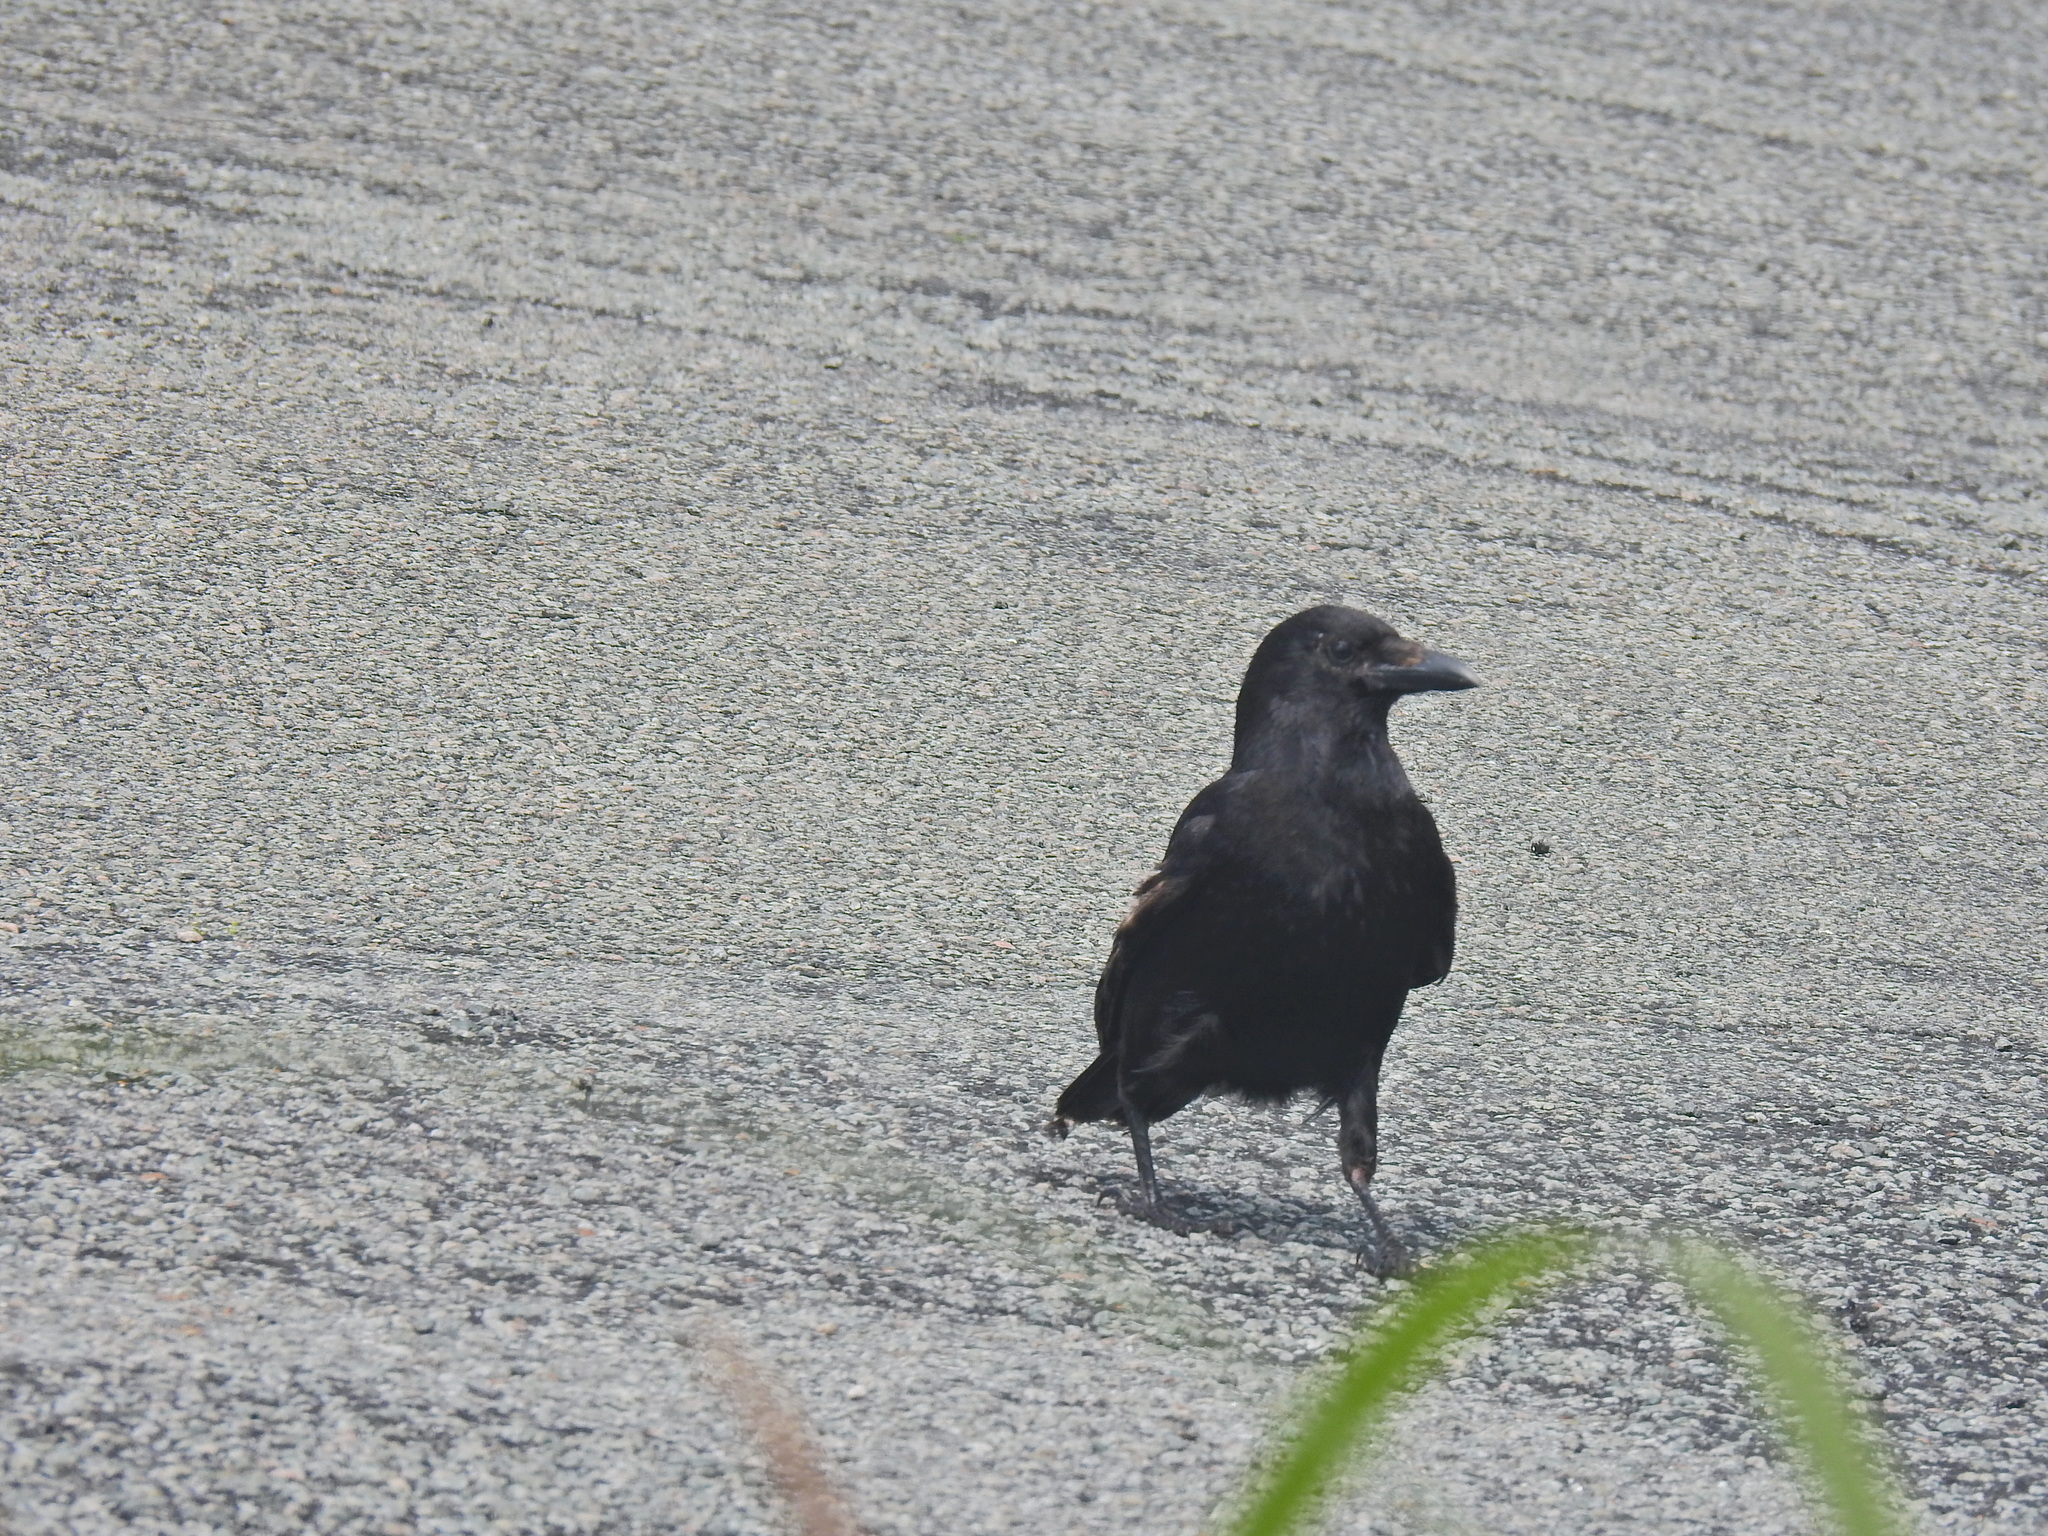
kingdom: Animalia
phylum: Chordata
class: Aves
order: Passeriformes
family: Corvidae
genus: Corvus
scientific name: Corvus corone
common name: Carrion crow
